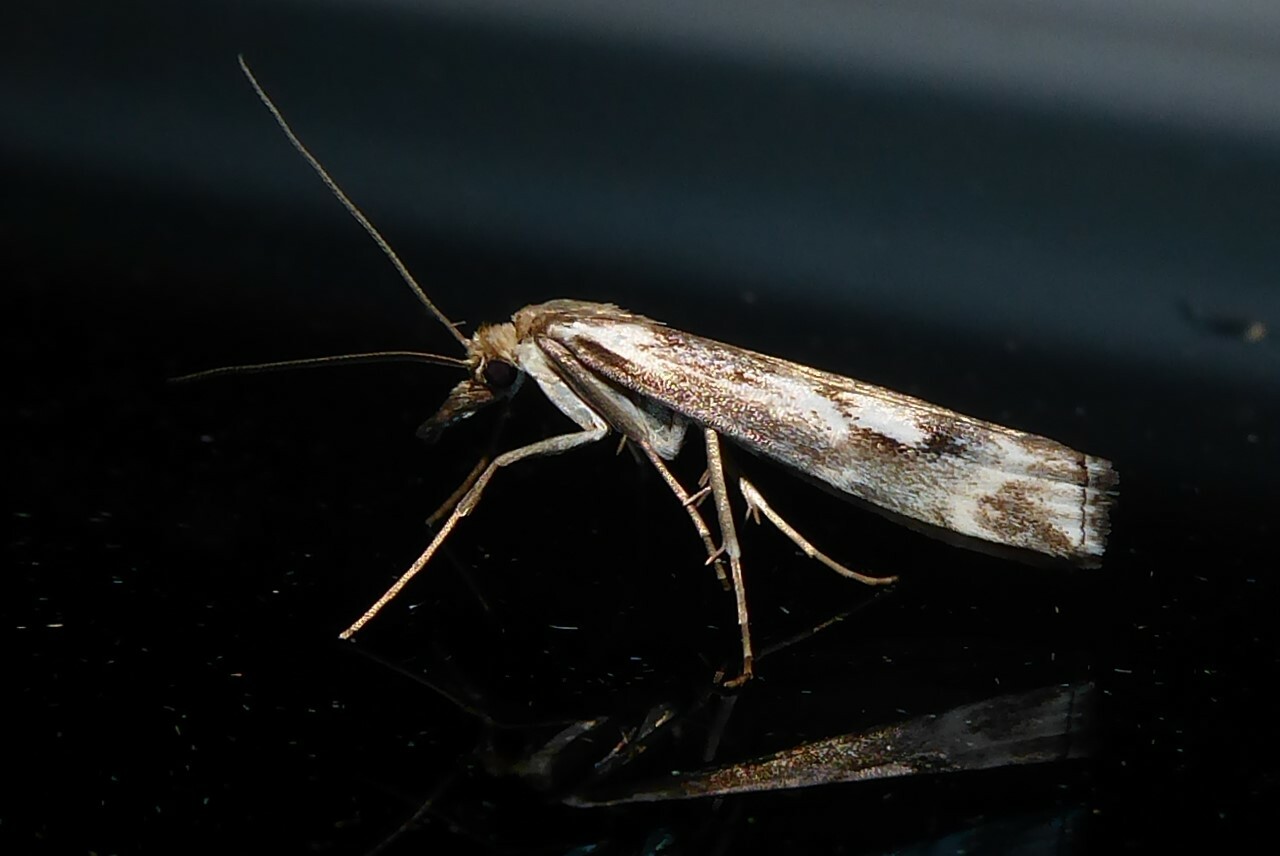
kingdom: Animalia
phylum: Arthropoda
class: Insecta
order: Lepidoptera
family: Crambidae
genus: Orocrambus
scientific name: Orocrambus vulgaris
